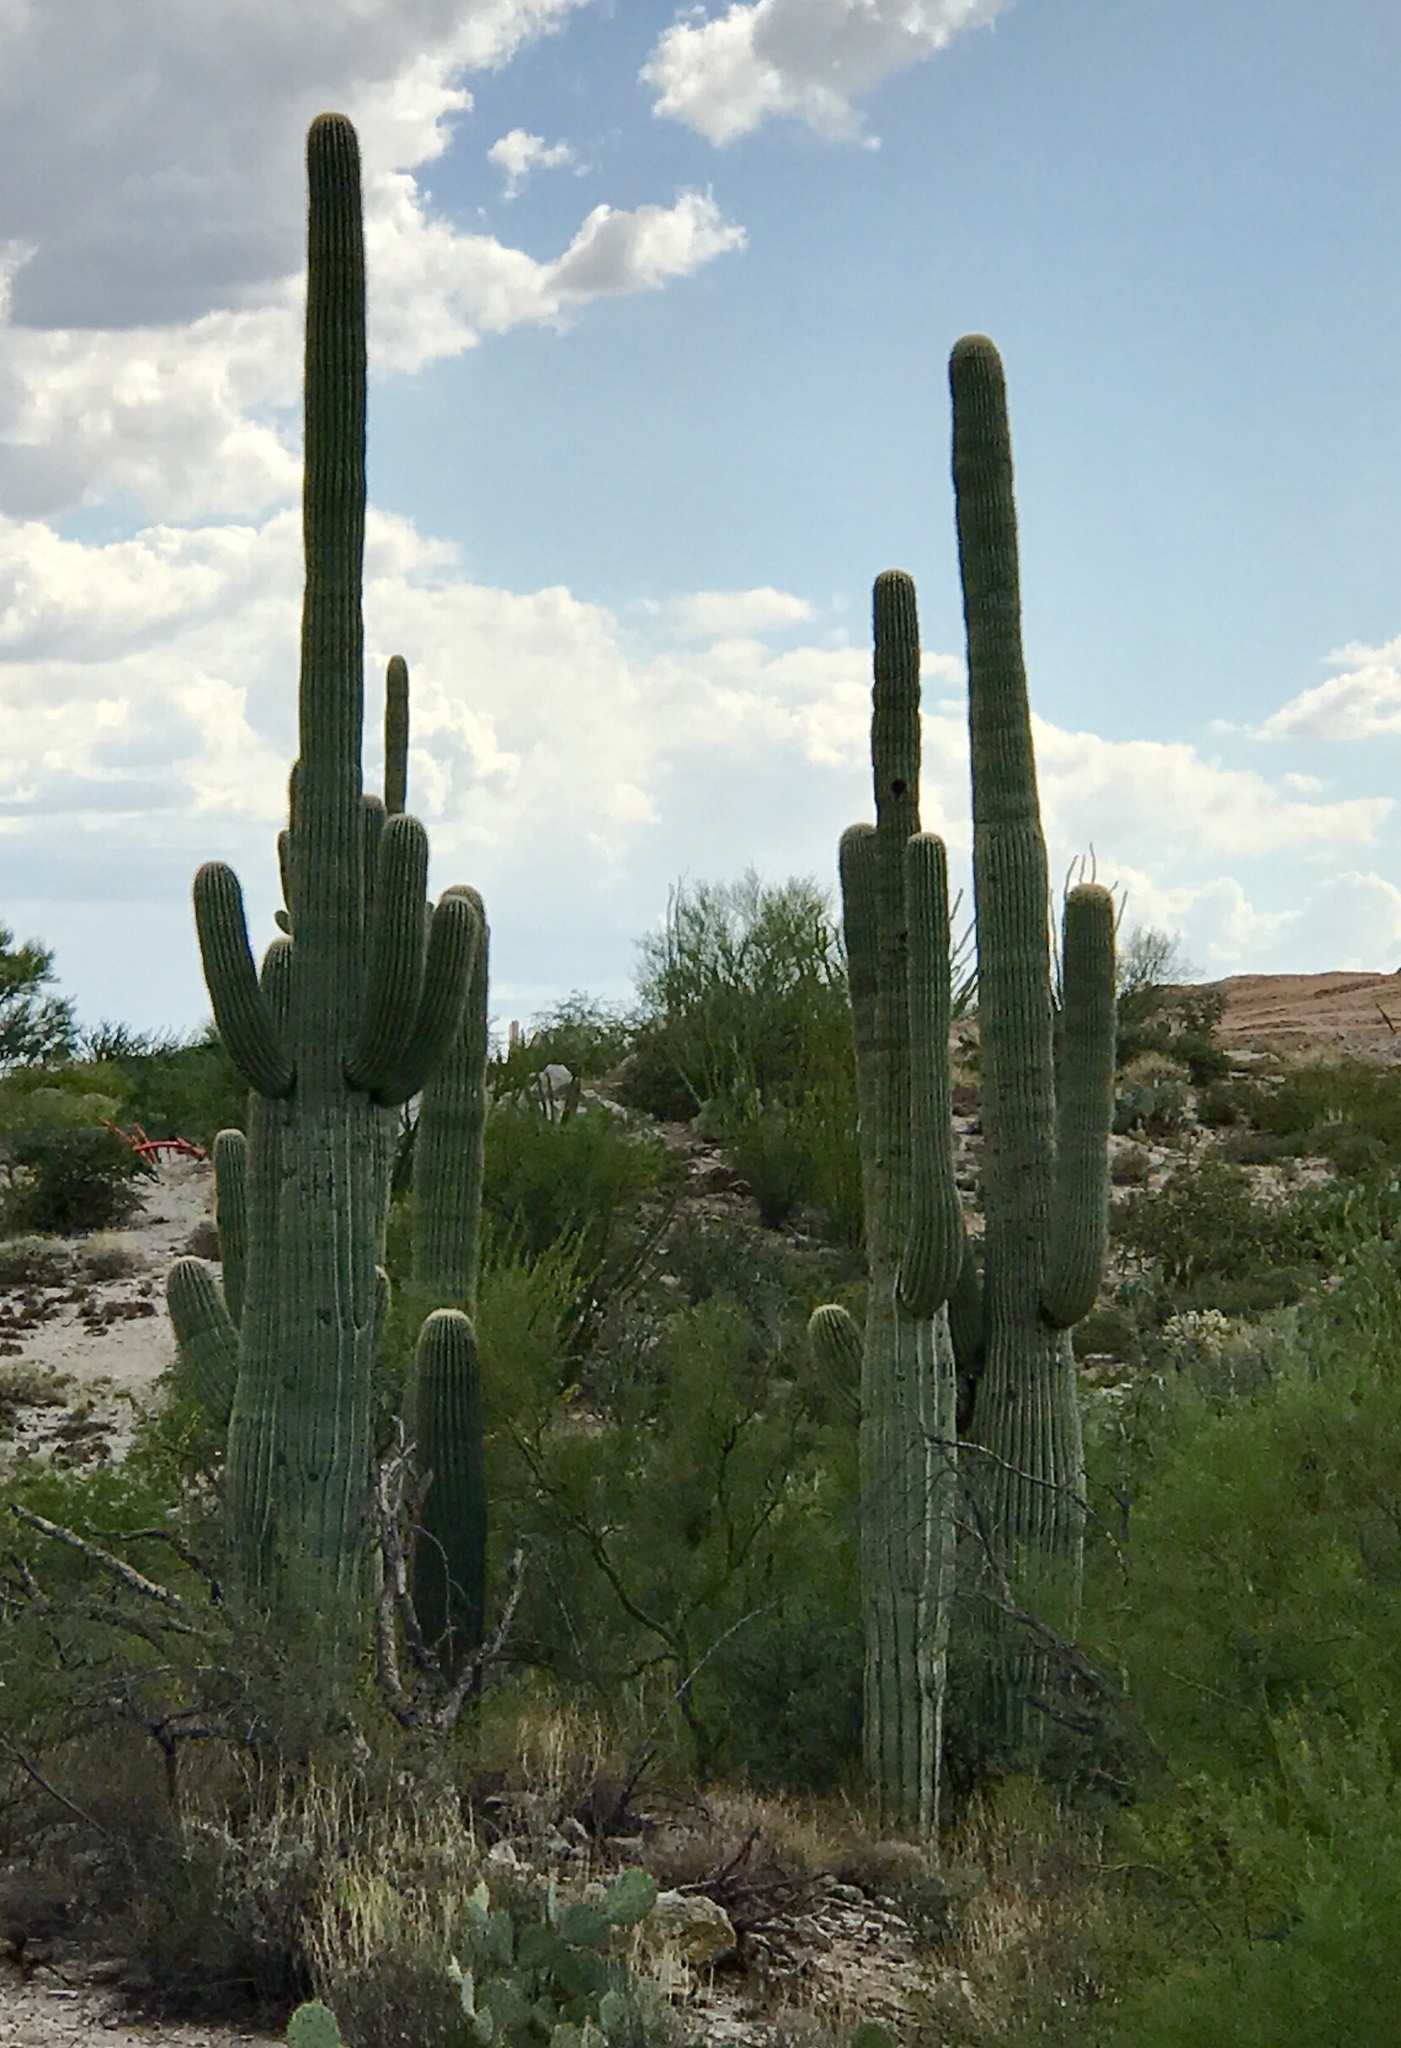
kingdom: Plantae
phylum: Tracheophyta
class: Magnoliopsida
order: Caryophyllales
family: Cactaceae
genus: Carnegiea
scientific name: Carnegiea gigantea
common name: Saguaro
